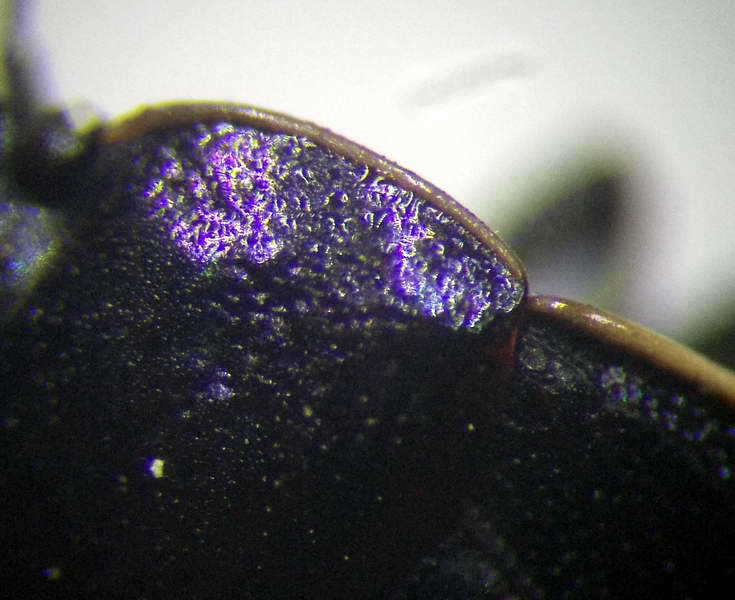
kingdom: Animalia
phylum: Arthropoda
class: Insecta
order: Hemiptera
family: Cydnidae
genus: Canthophorus
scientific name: Canthophorus mixtus
